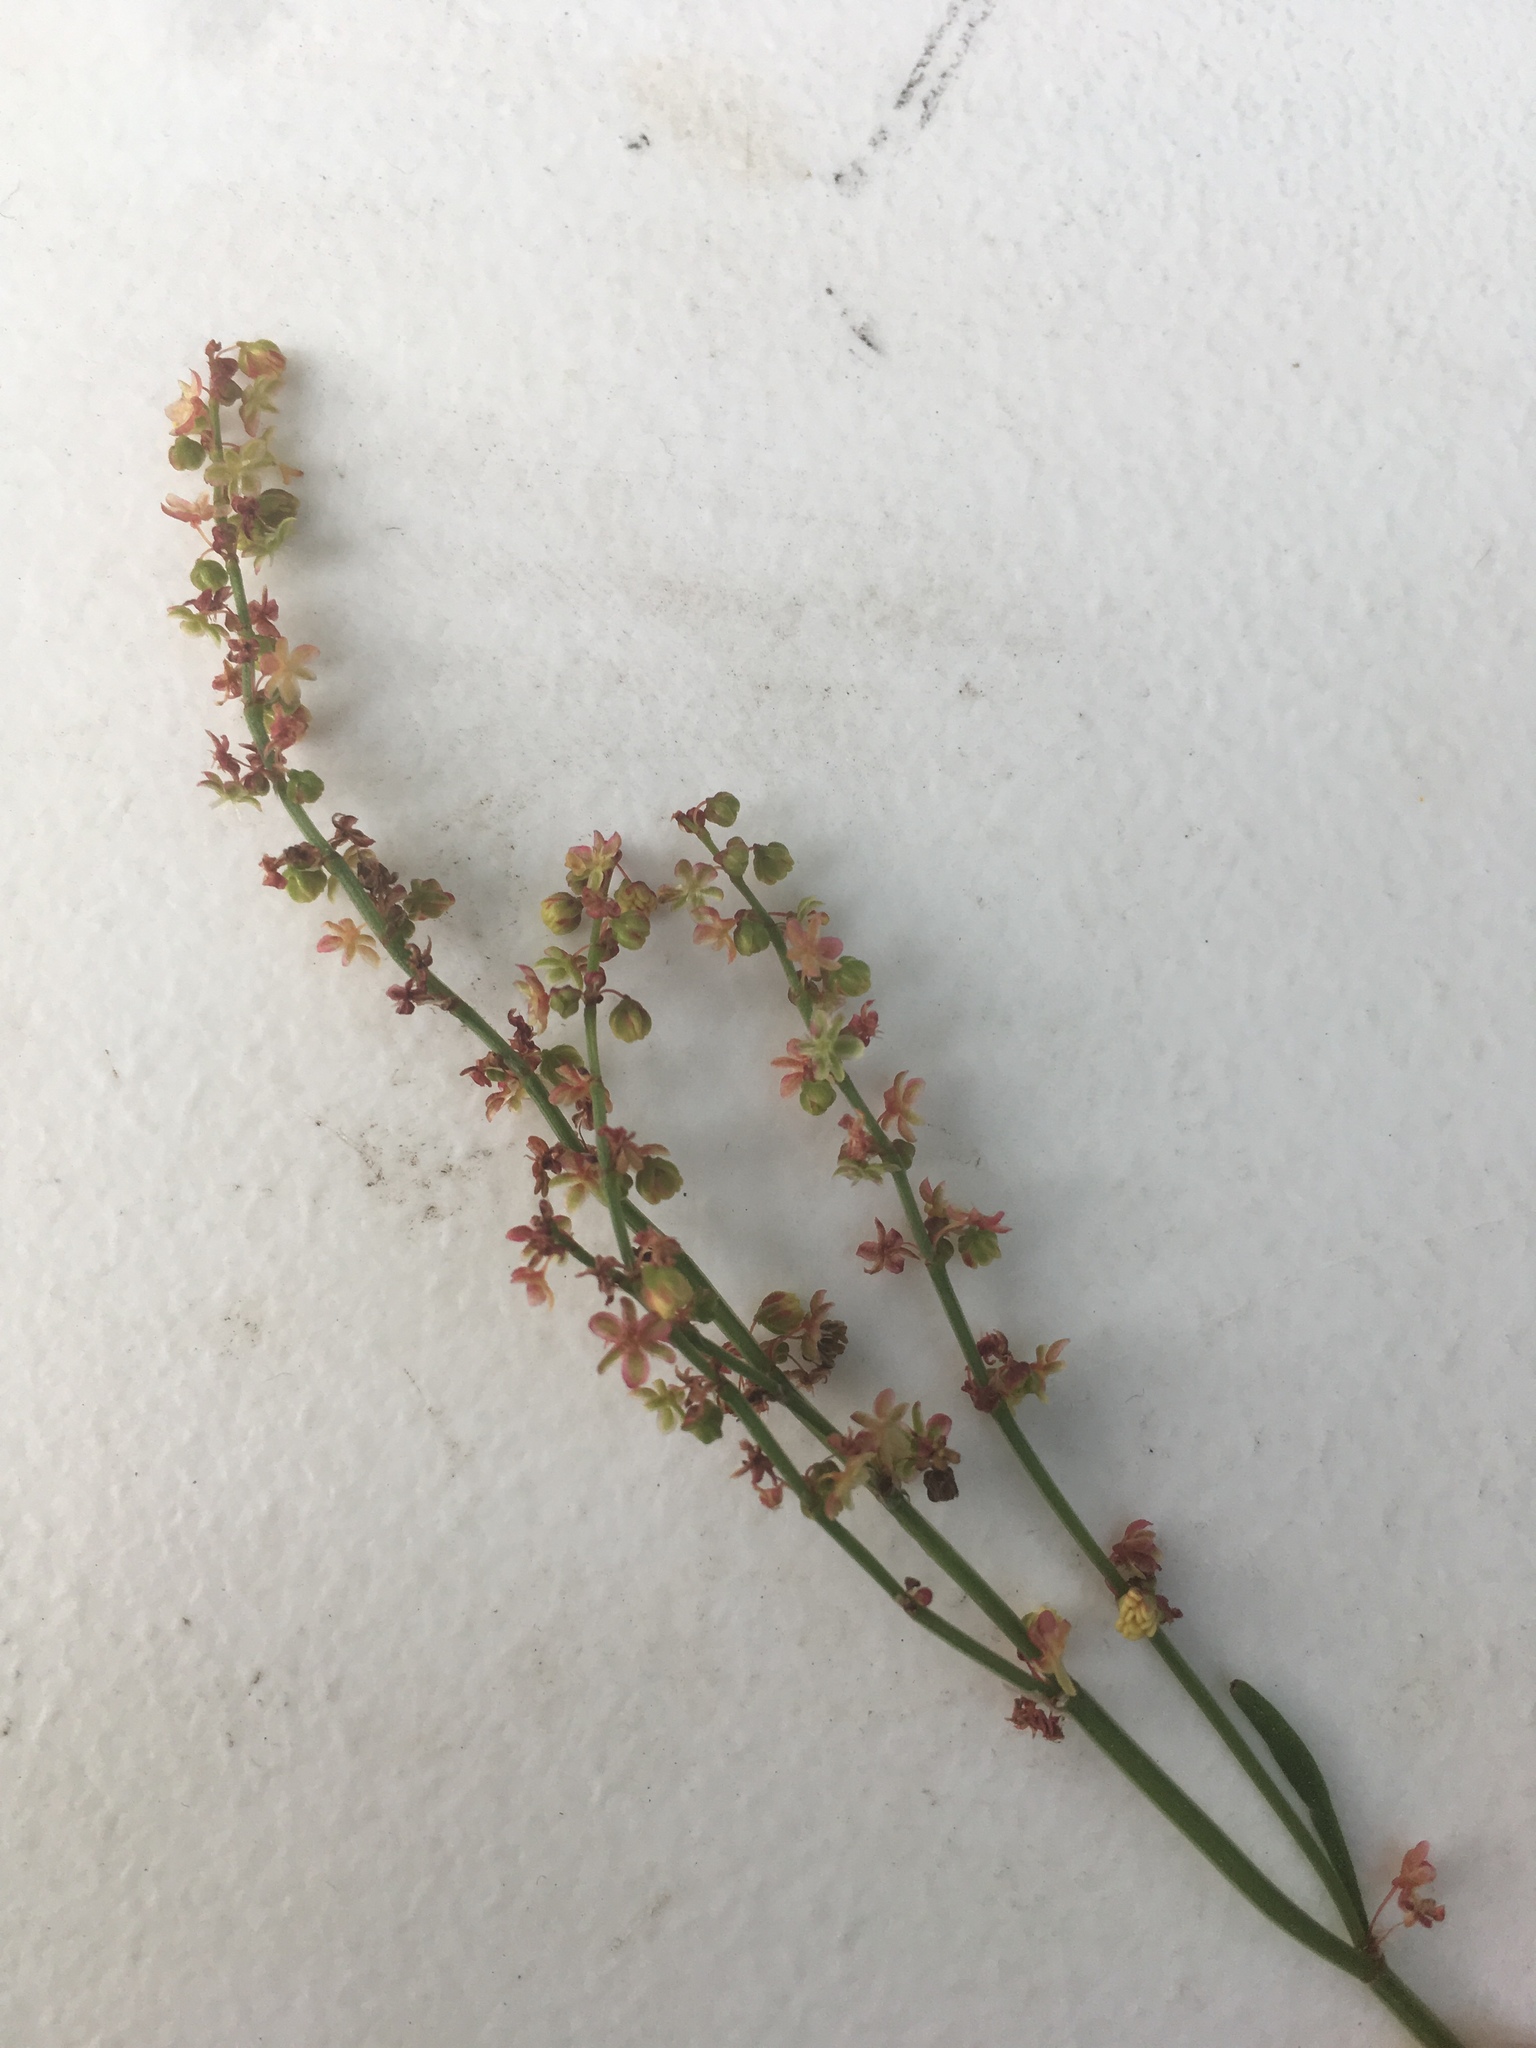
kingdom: Plantae
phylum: Tracheophyta
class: Magnoliopsida
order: Caryophyllales
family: Polygonaceae
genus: Rumex
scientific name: Rumex acetosella
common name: Common sheep sorrel
